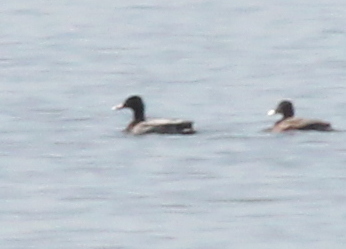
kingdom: Animalia
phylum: Chordata
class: Aves
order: Anseriformes
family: Anatidae
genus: Anas
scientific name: Anas platyrhynchos
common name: Mallard
